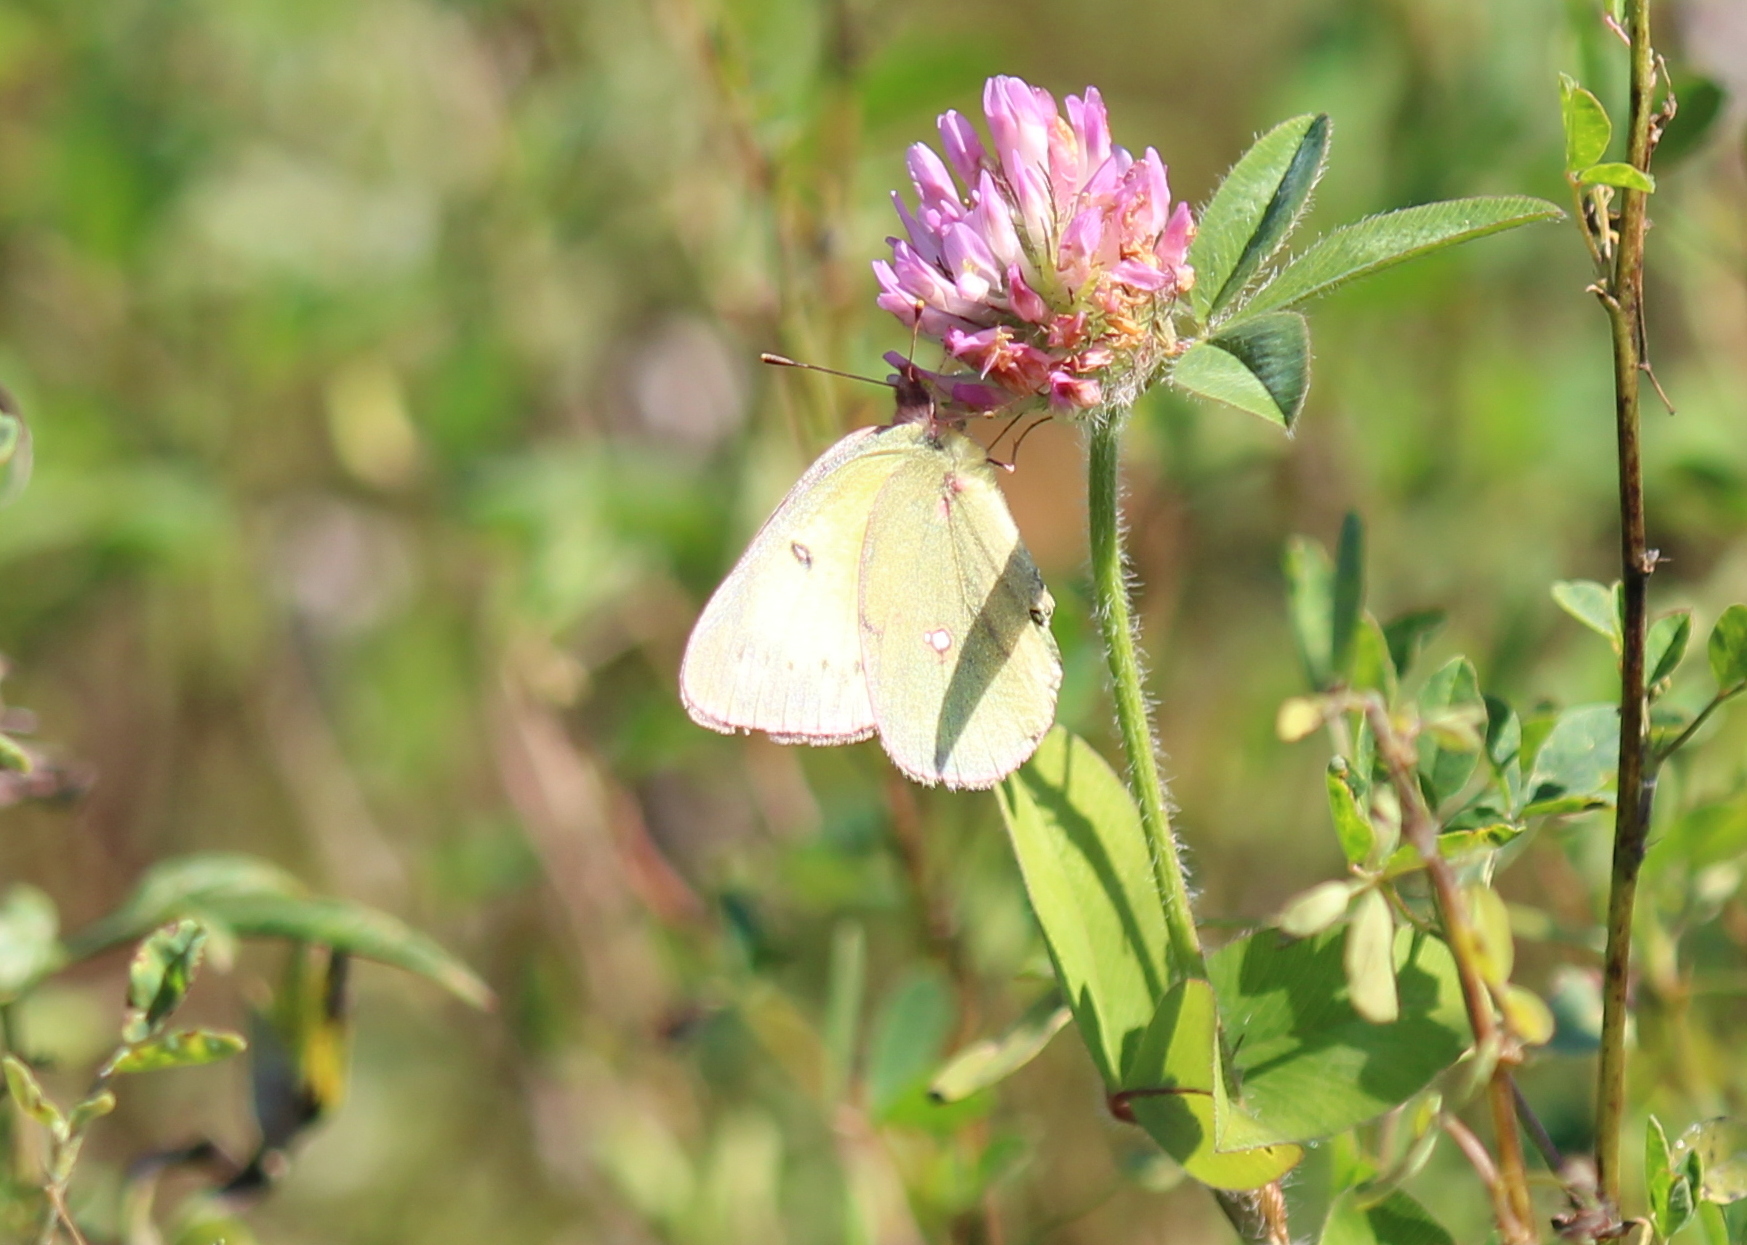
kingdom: Animalia
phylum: Arthropoda
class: Insecta
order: Lepidoptera
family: Pieridae
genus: Colias
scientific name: Colias philodice
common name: Clouded sulphur
